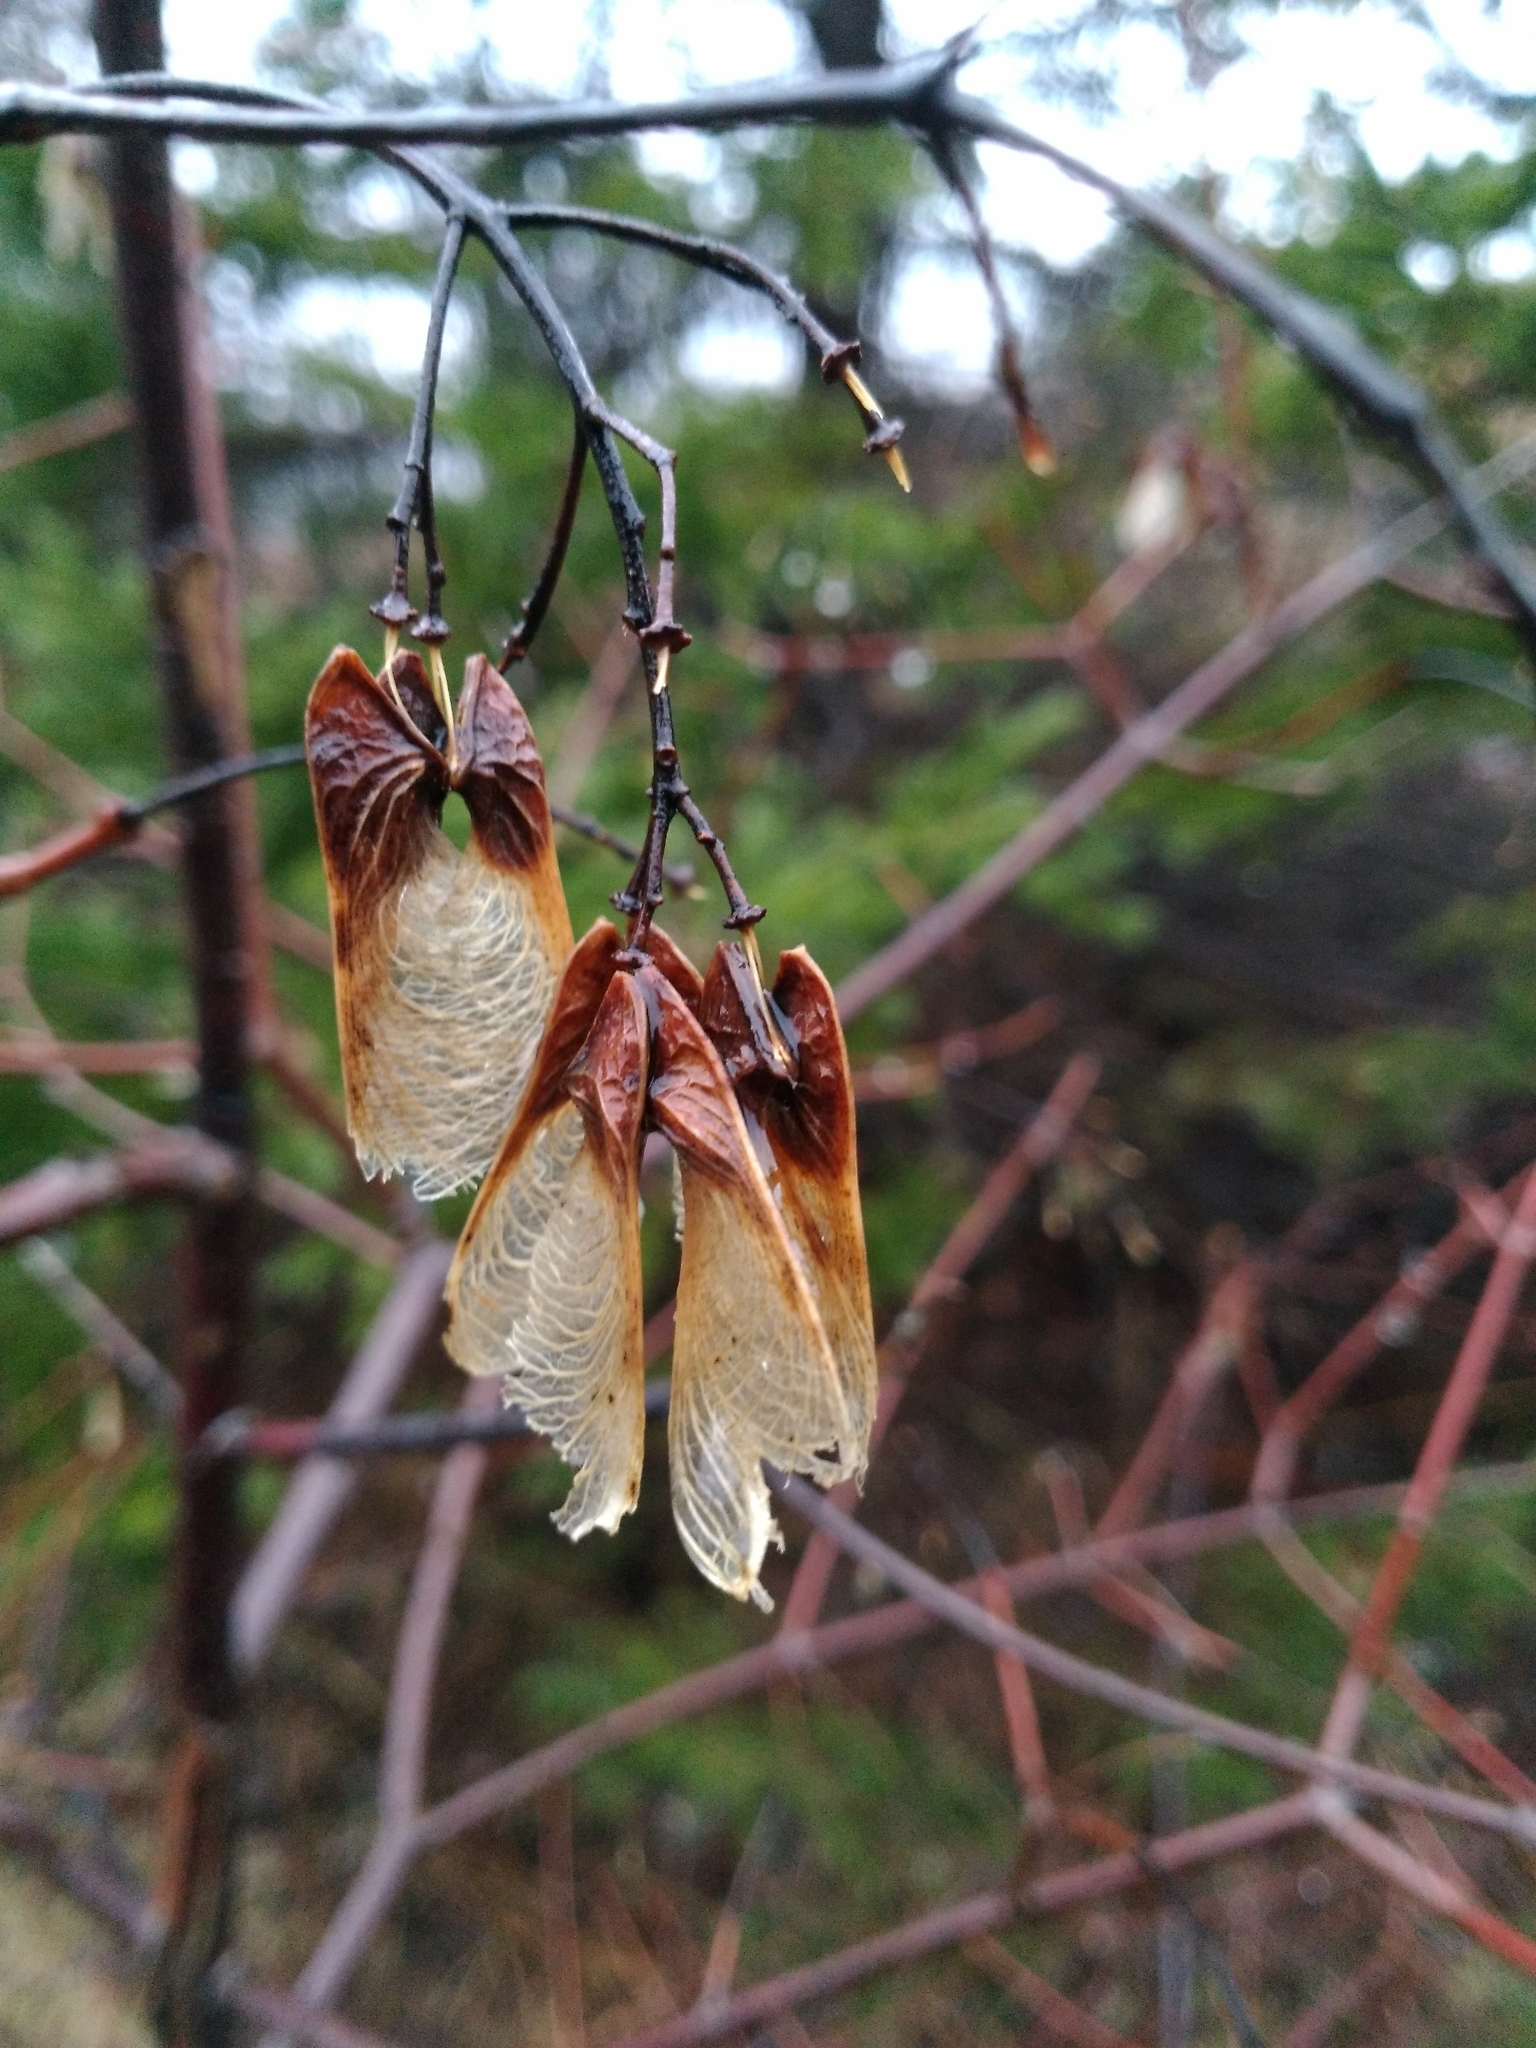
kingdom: Plantae
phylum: Tracheophyta
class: Magnoliopsida
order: Sapindales
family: Sapindaceae
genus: Acer
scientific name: Acer tataricum
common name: Tartar maple
